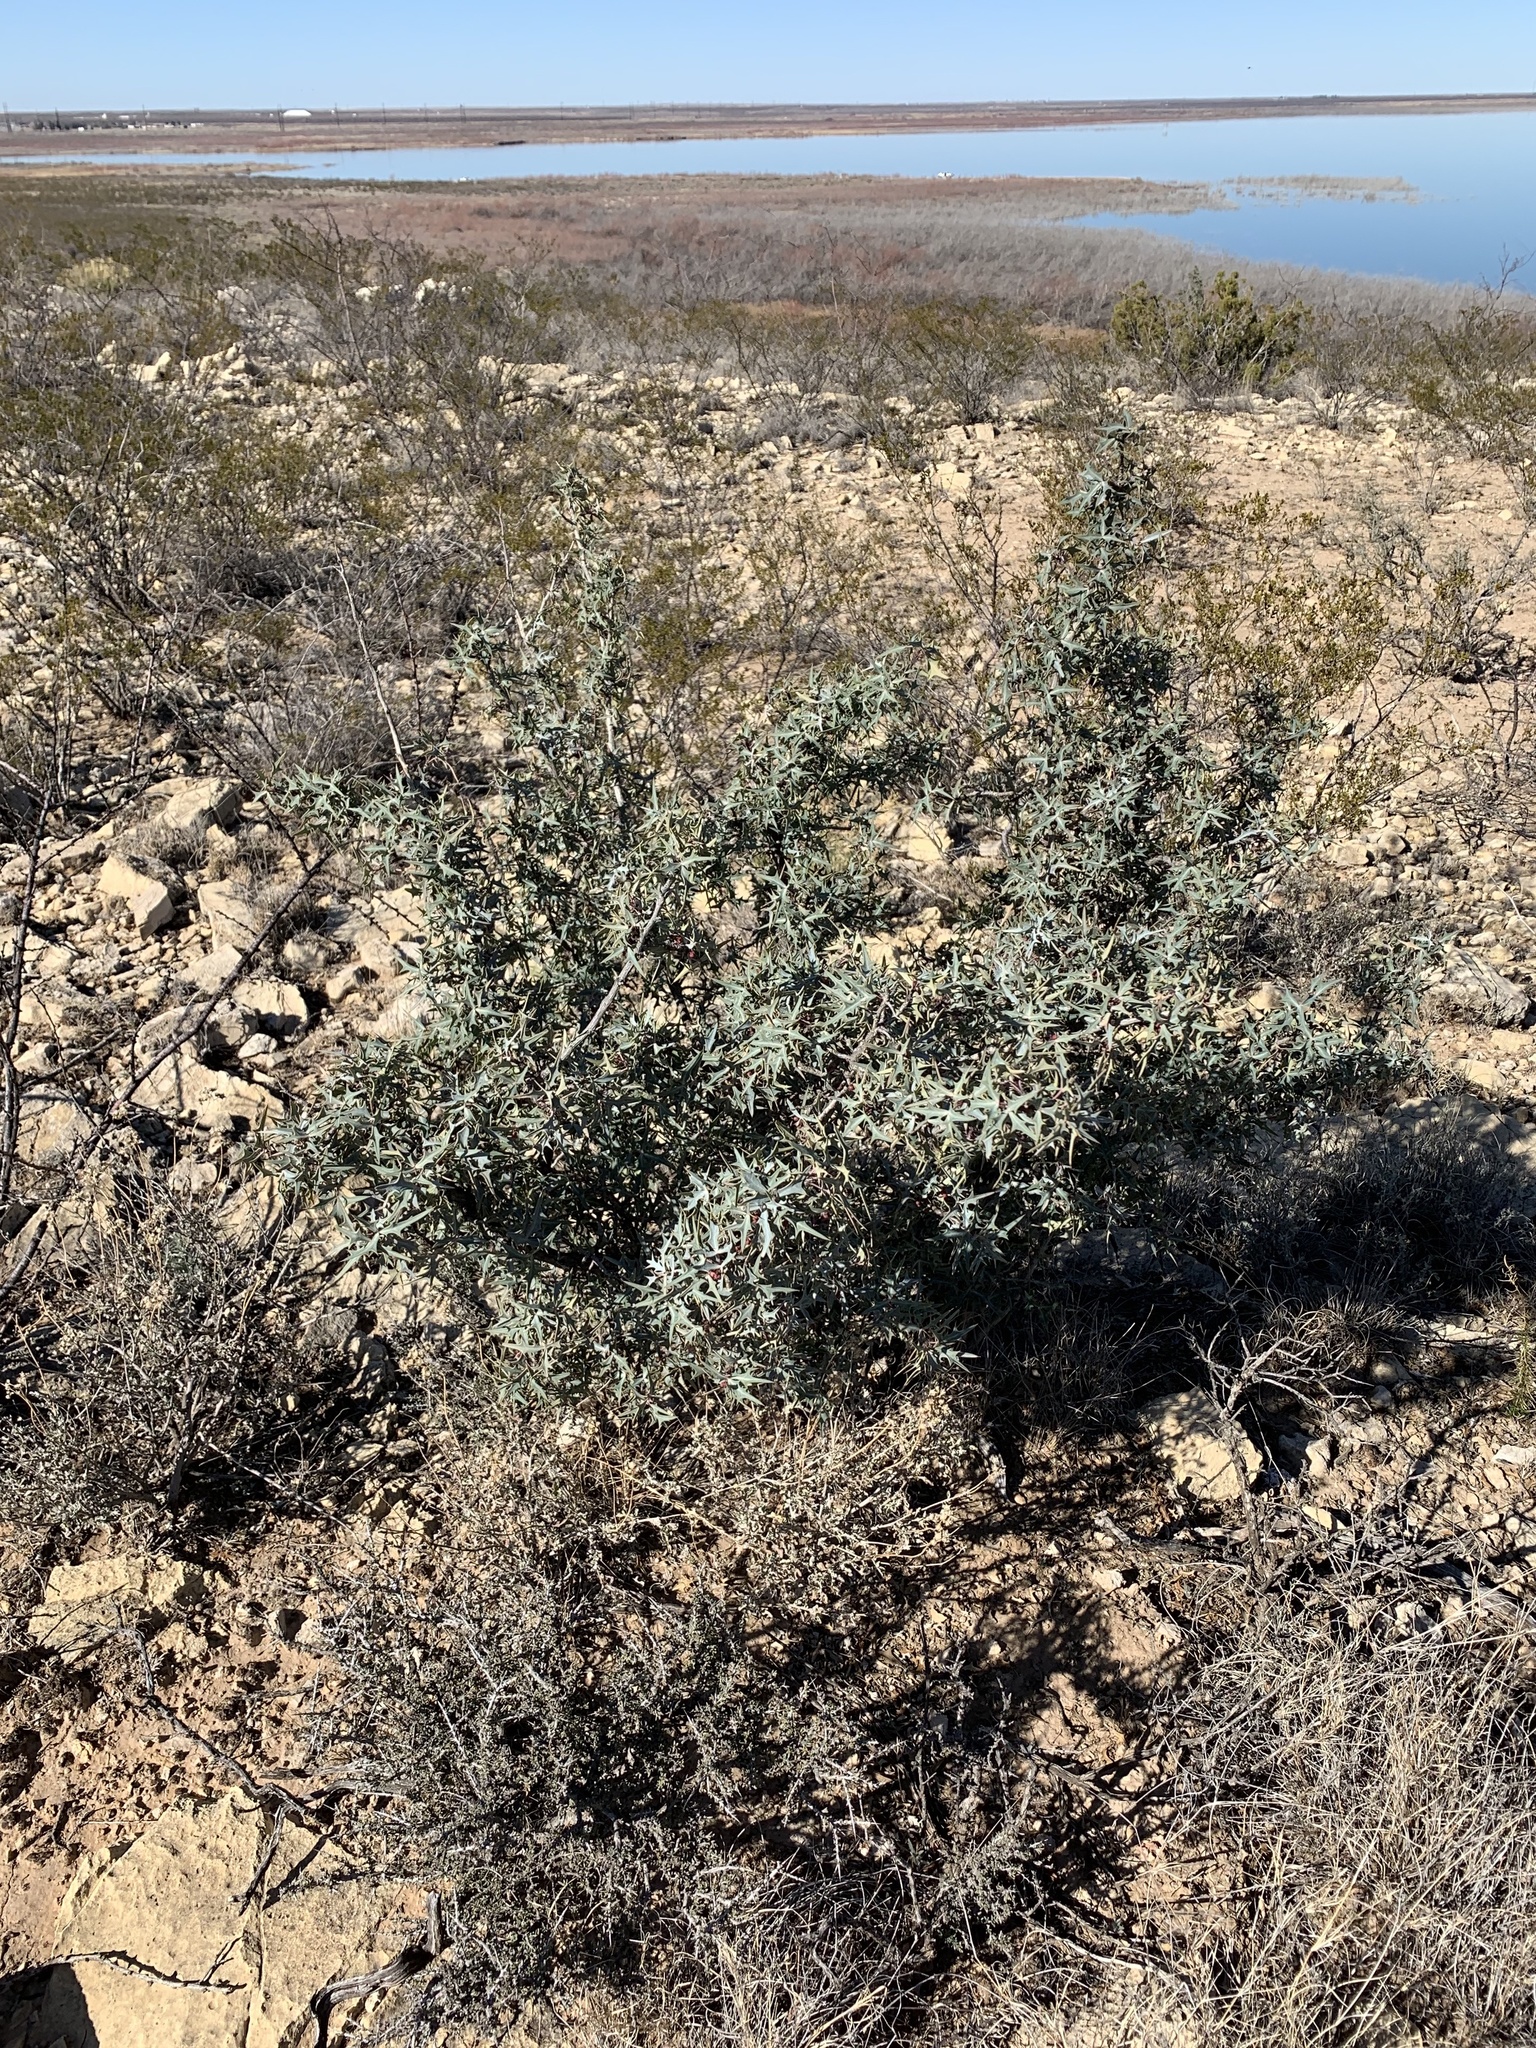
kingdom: Plantae
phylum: Tracheophyta
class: Magnoliopsida
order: Ranunculales
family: Berberidaceae
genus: Alloberberis
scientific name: Alloberberis trifoliolata
